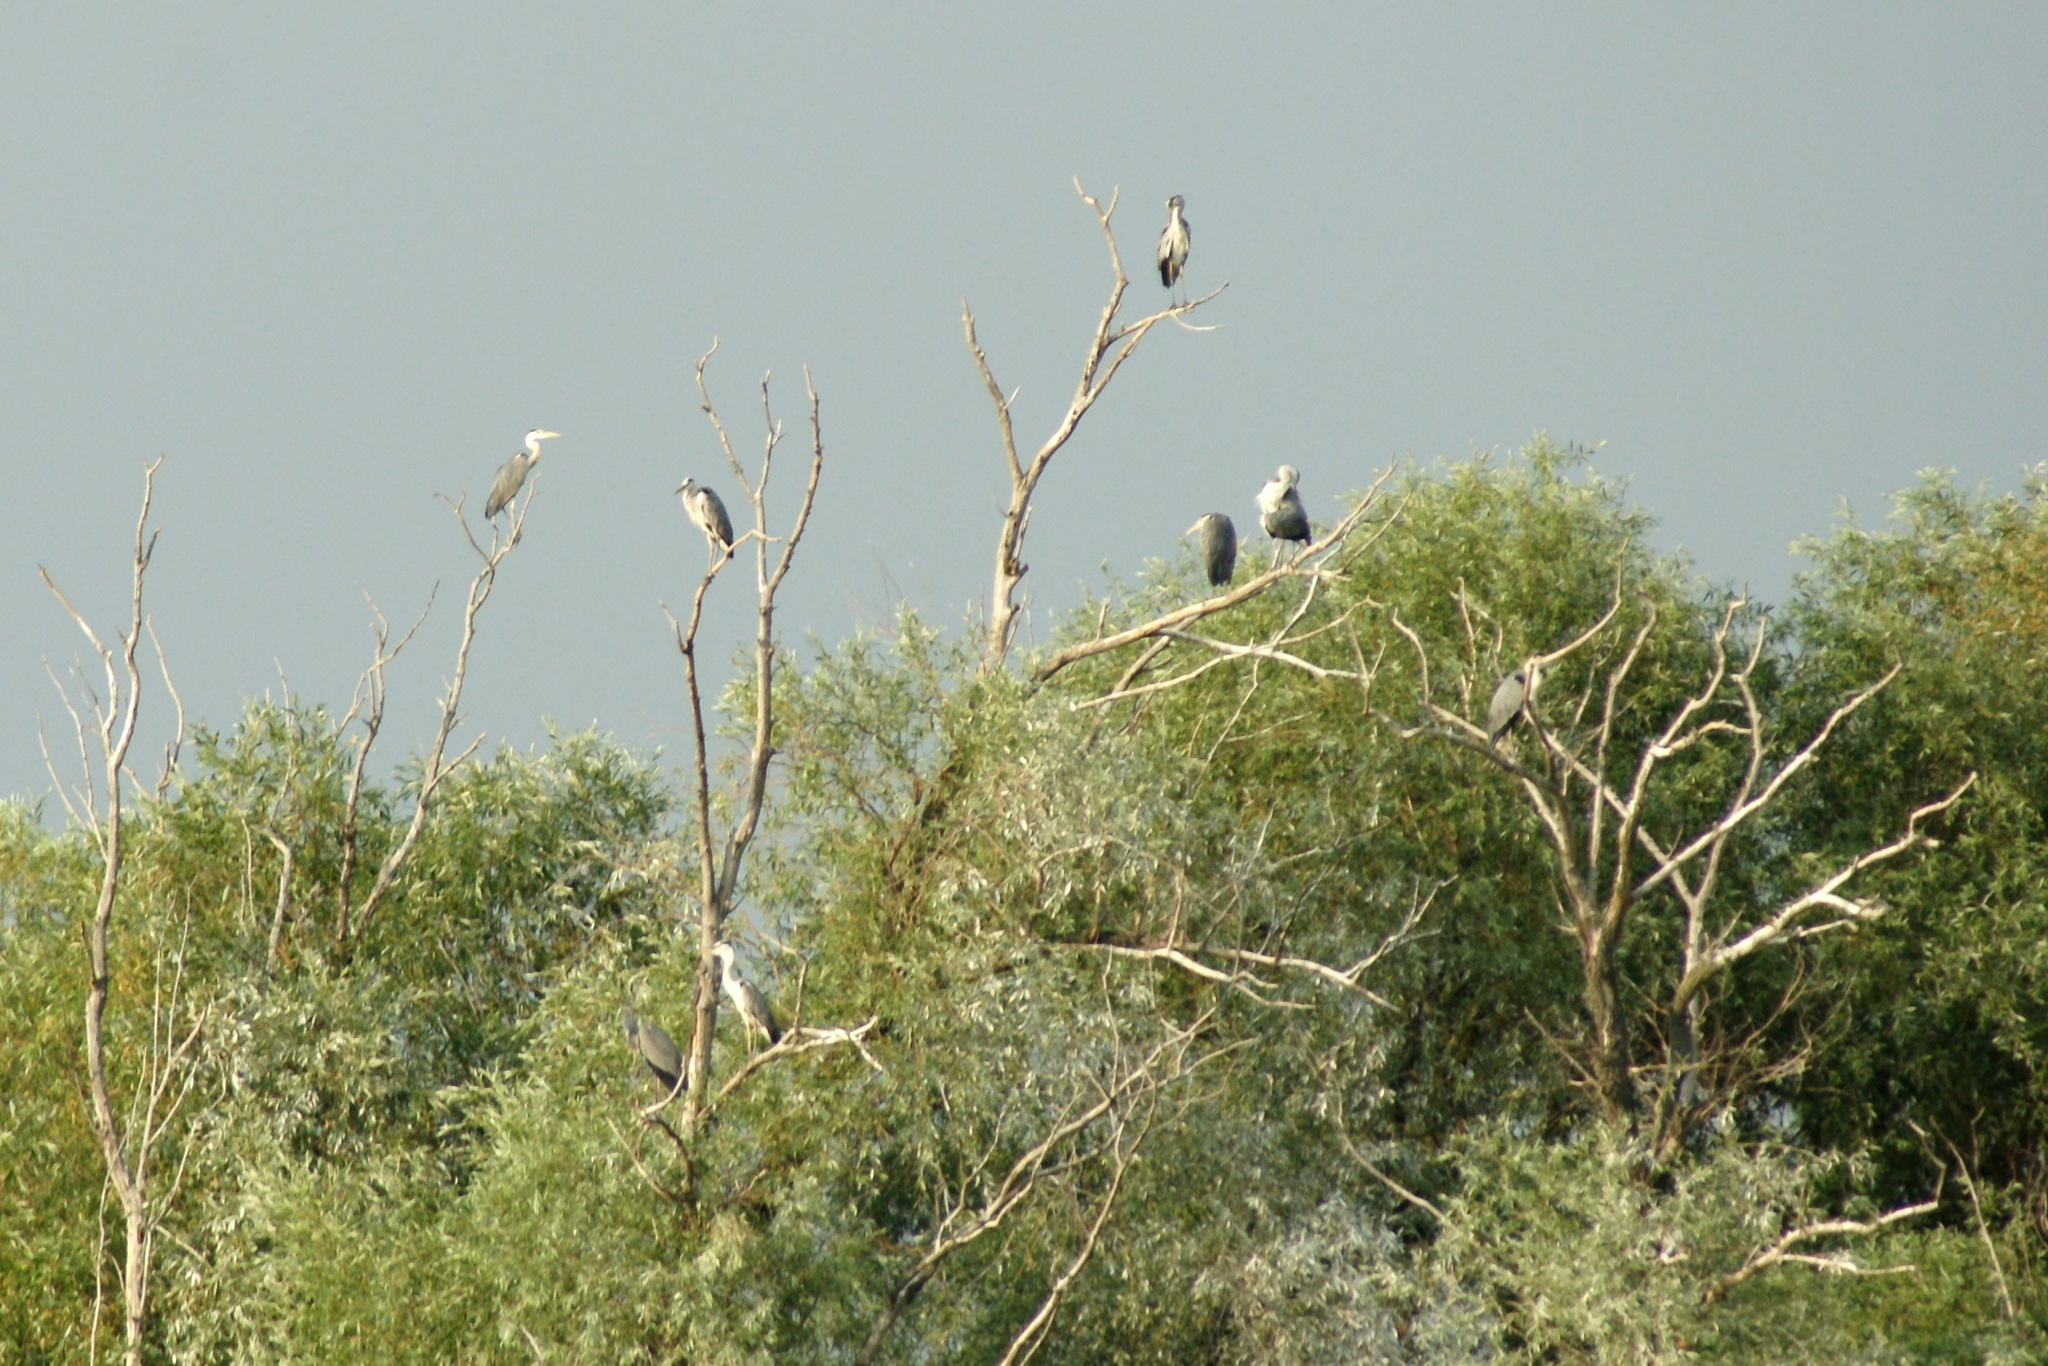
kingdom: Animalia
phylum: Chordata
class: Aves
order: Pelecaniformes
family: Ardeidae
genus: Ardea
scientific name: Ardea cinerea
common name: Grey heron
